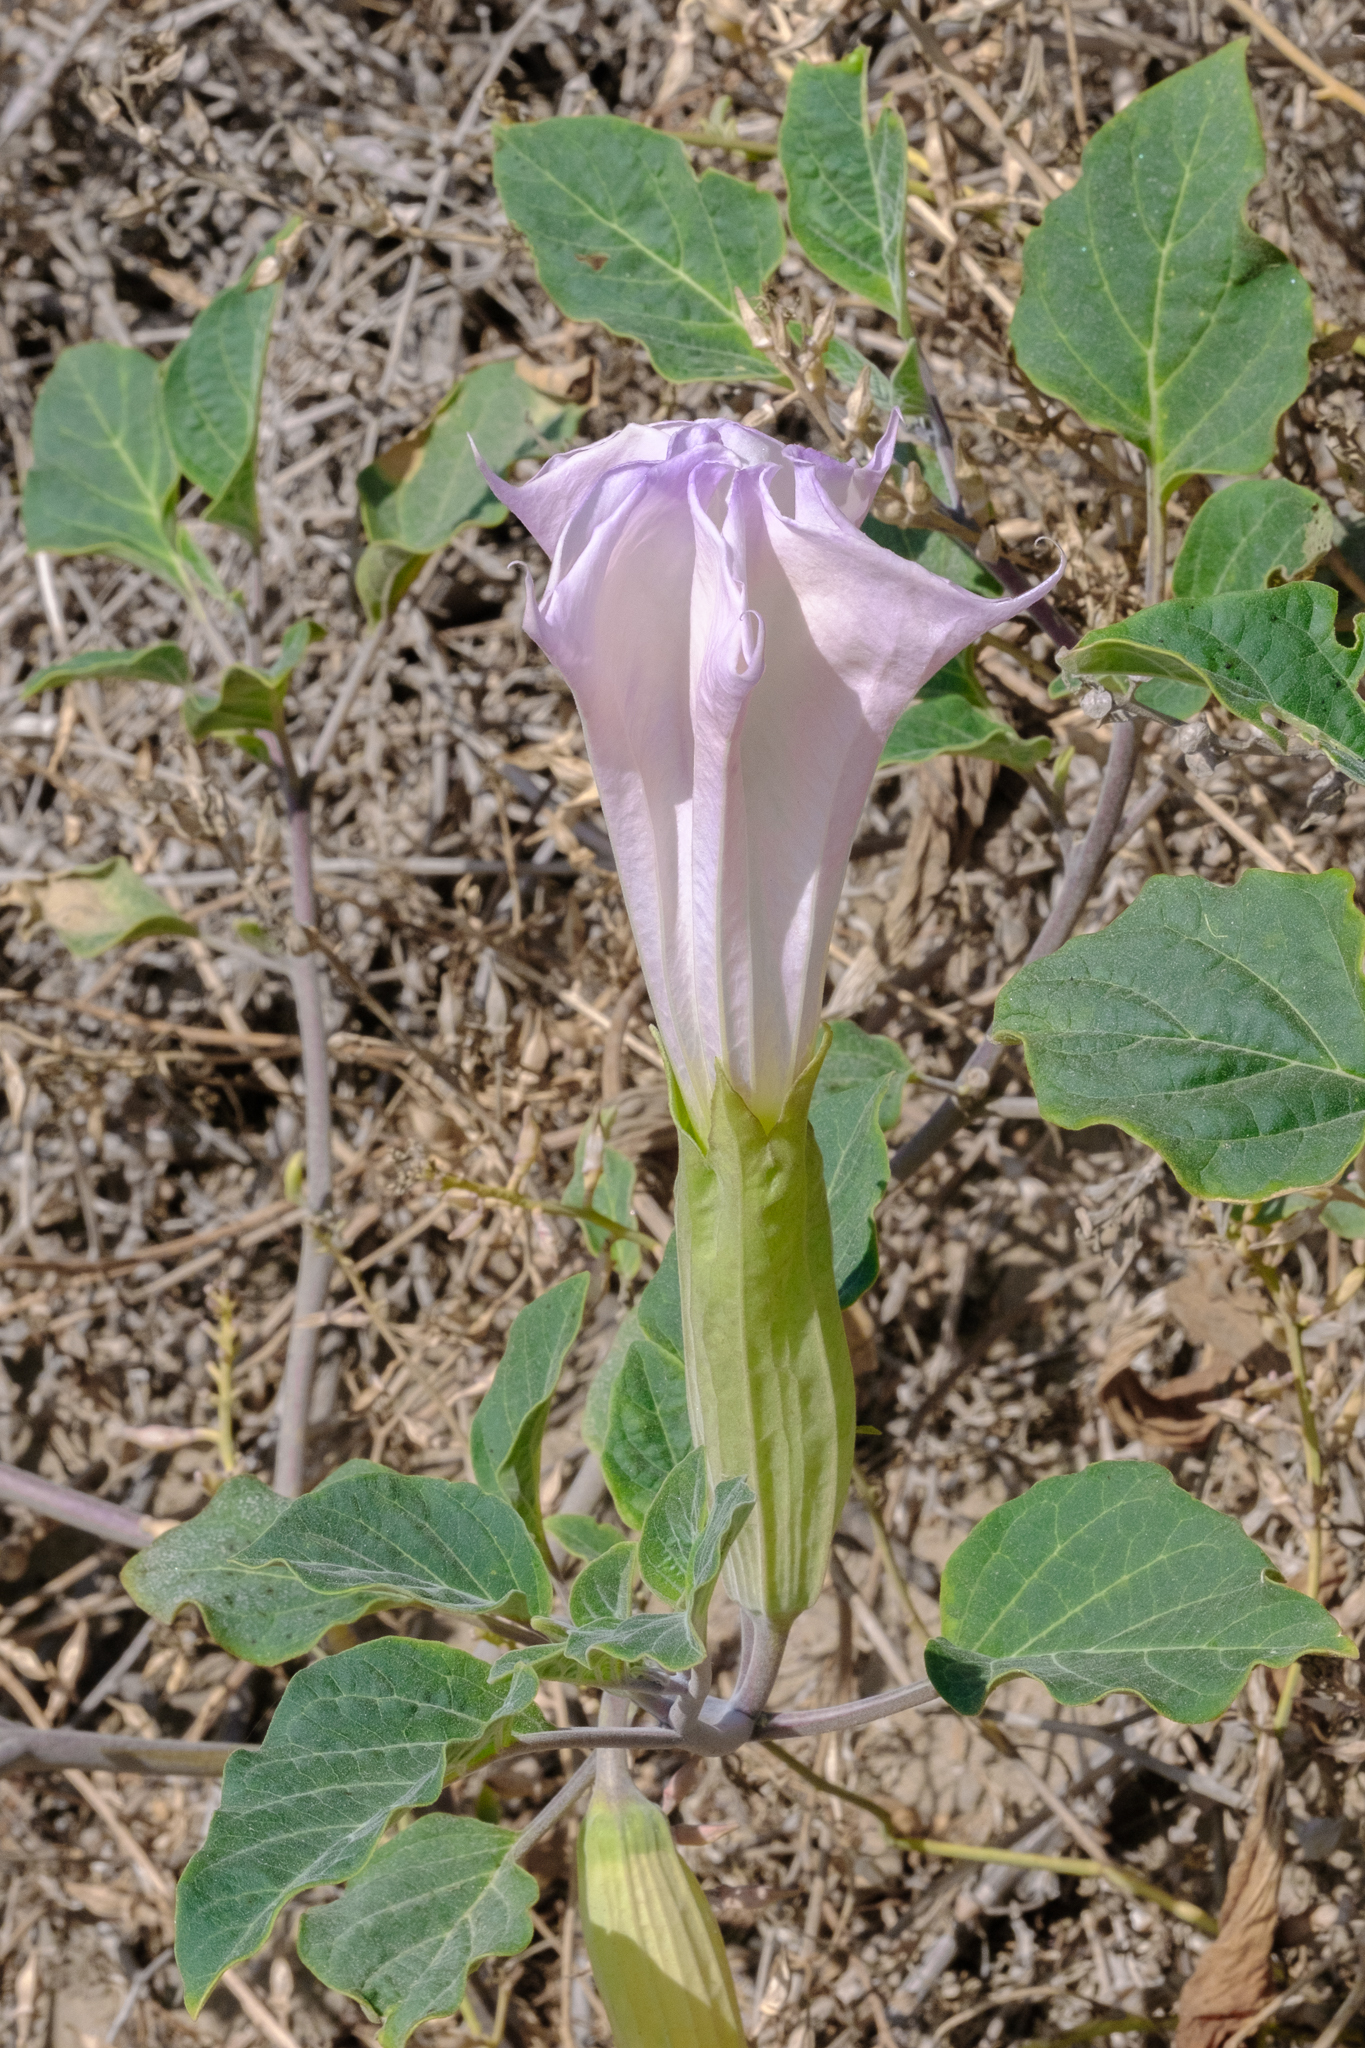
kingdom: Plantae
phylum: Tracheophyta
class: Magnoliopsida
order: Solanales
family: Solanaceae
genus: Datura
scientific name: Datura wrightii
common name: Sacred thorn-apple
